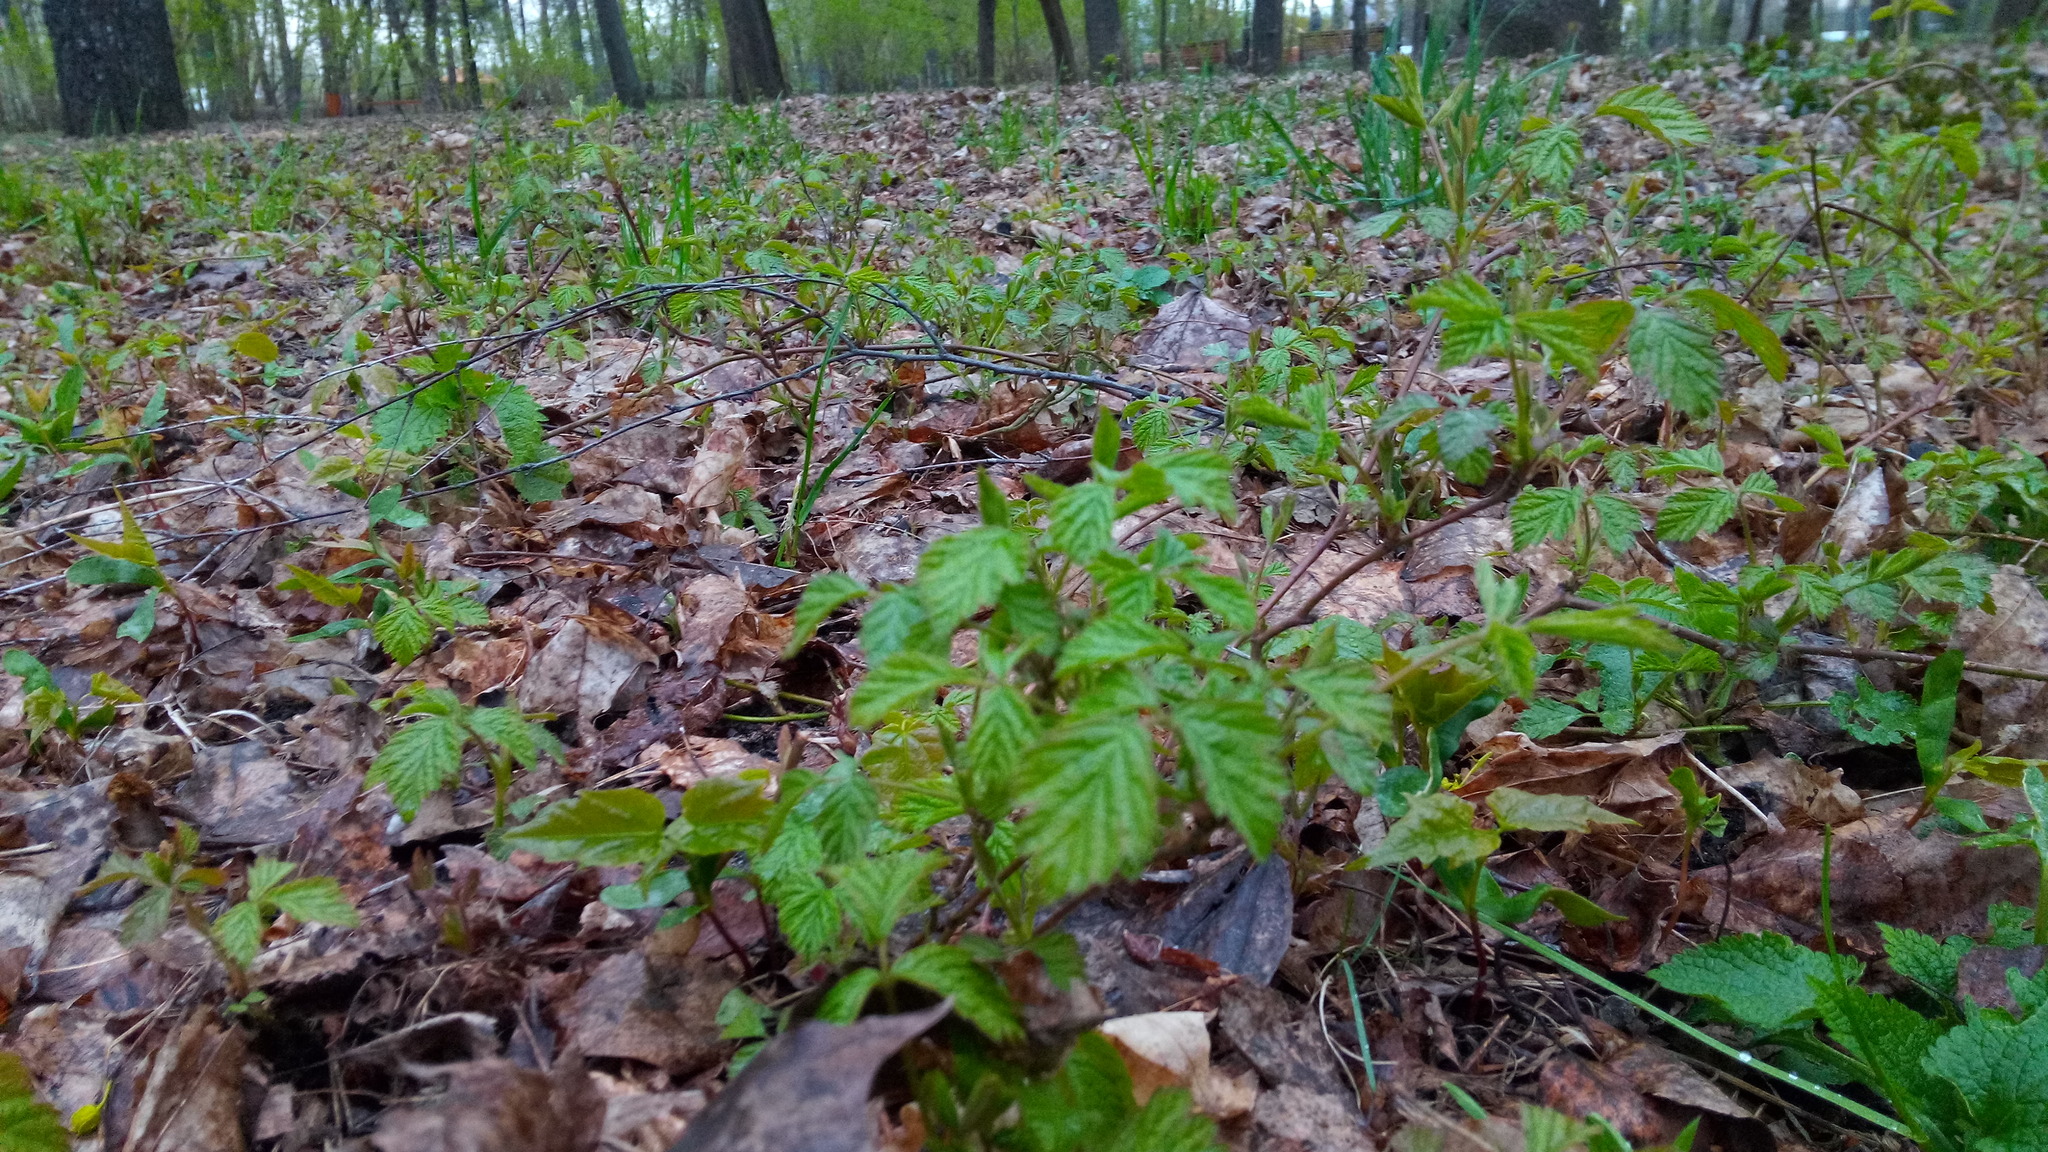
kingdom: Plantae
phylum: Tracheophyta
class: Magnoliopsida
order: Rosales
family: Rosaceae
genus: Rubus
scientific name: Rubus saxatilis
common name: Stone bramble
